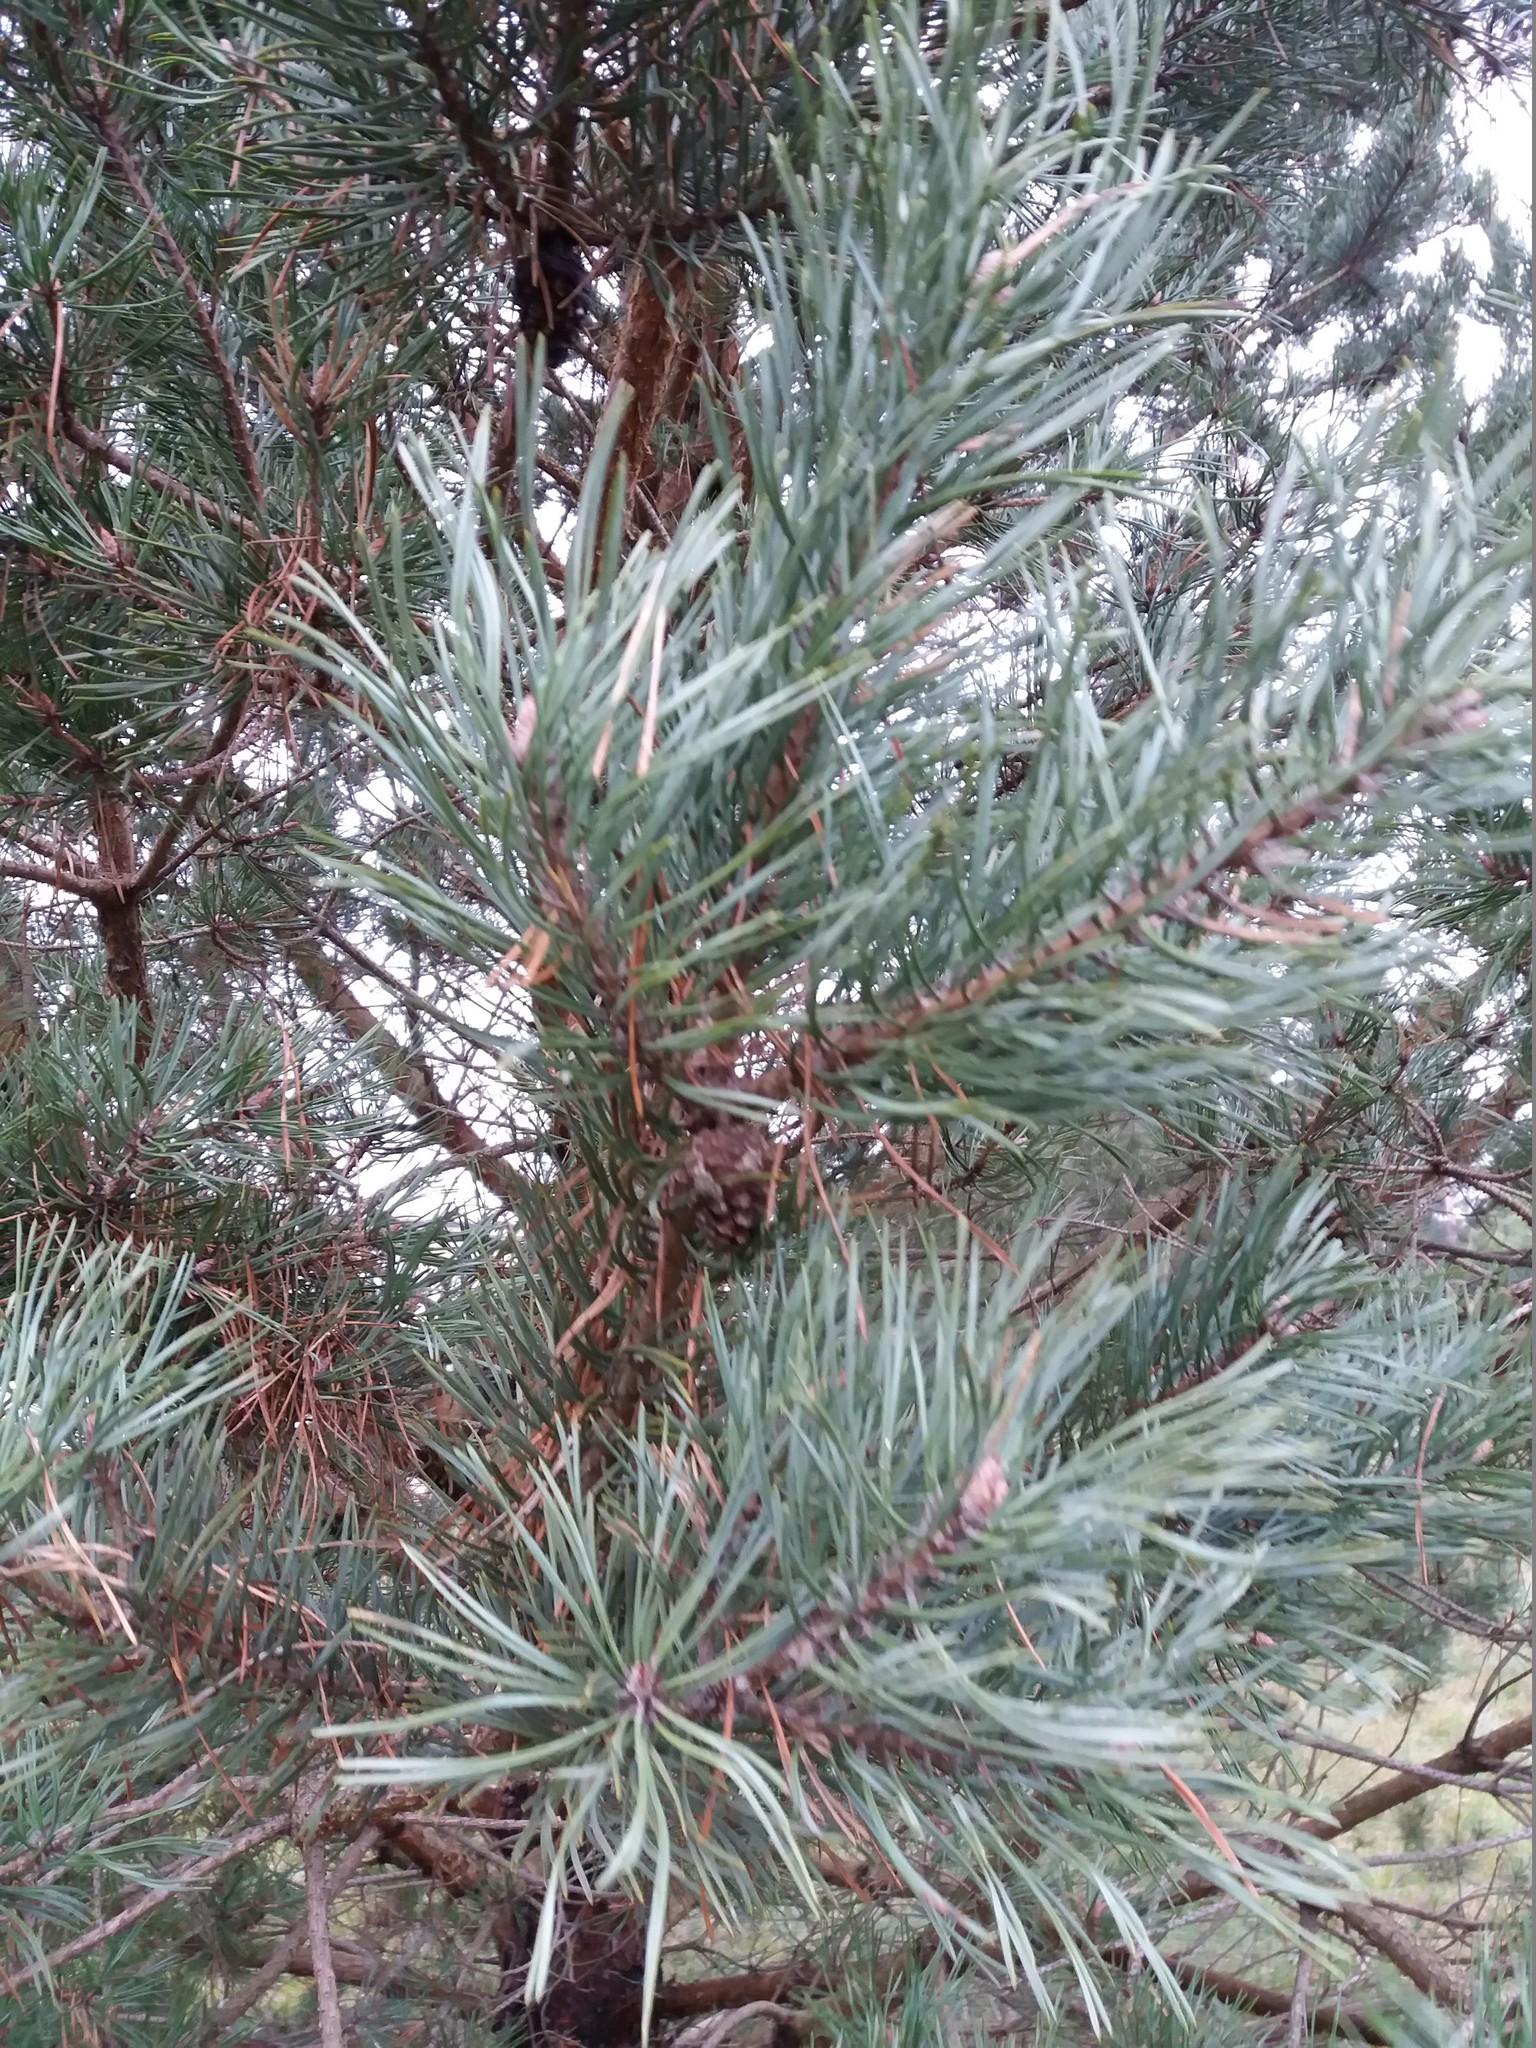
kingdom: Plantae
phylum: Tracheophyta
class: Pinopsida
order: Pinales
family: Pinaceae
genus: Pinus
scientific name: Pinus sylvestris
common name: Scots pine
